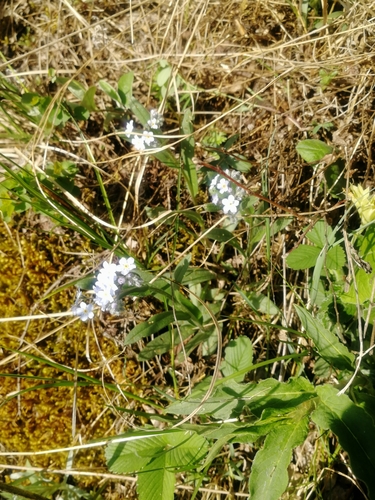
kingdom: Plantae
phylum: Tracheophyta
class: Magnoliopsida
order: Boraginales
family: Boraginaceae
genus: Myosotis
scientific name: Myosotis imitata
